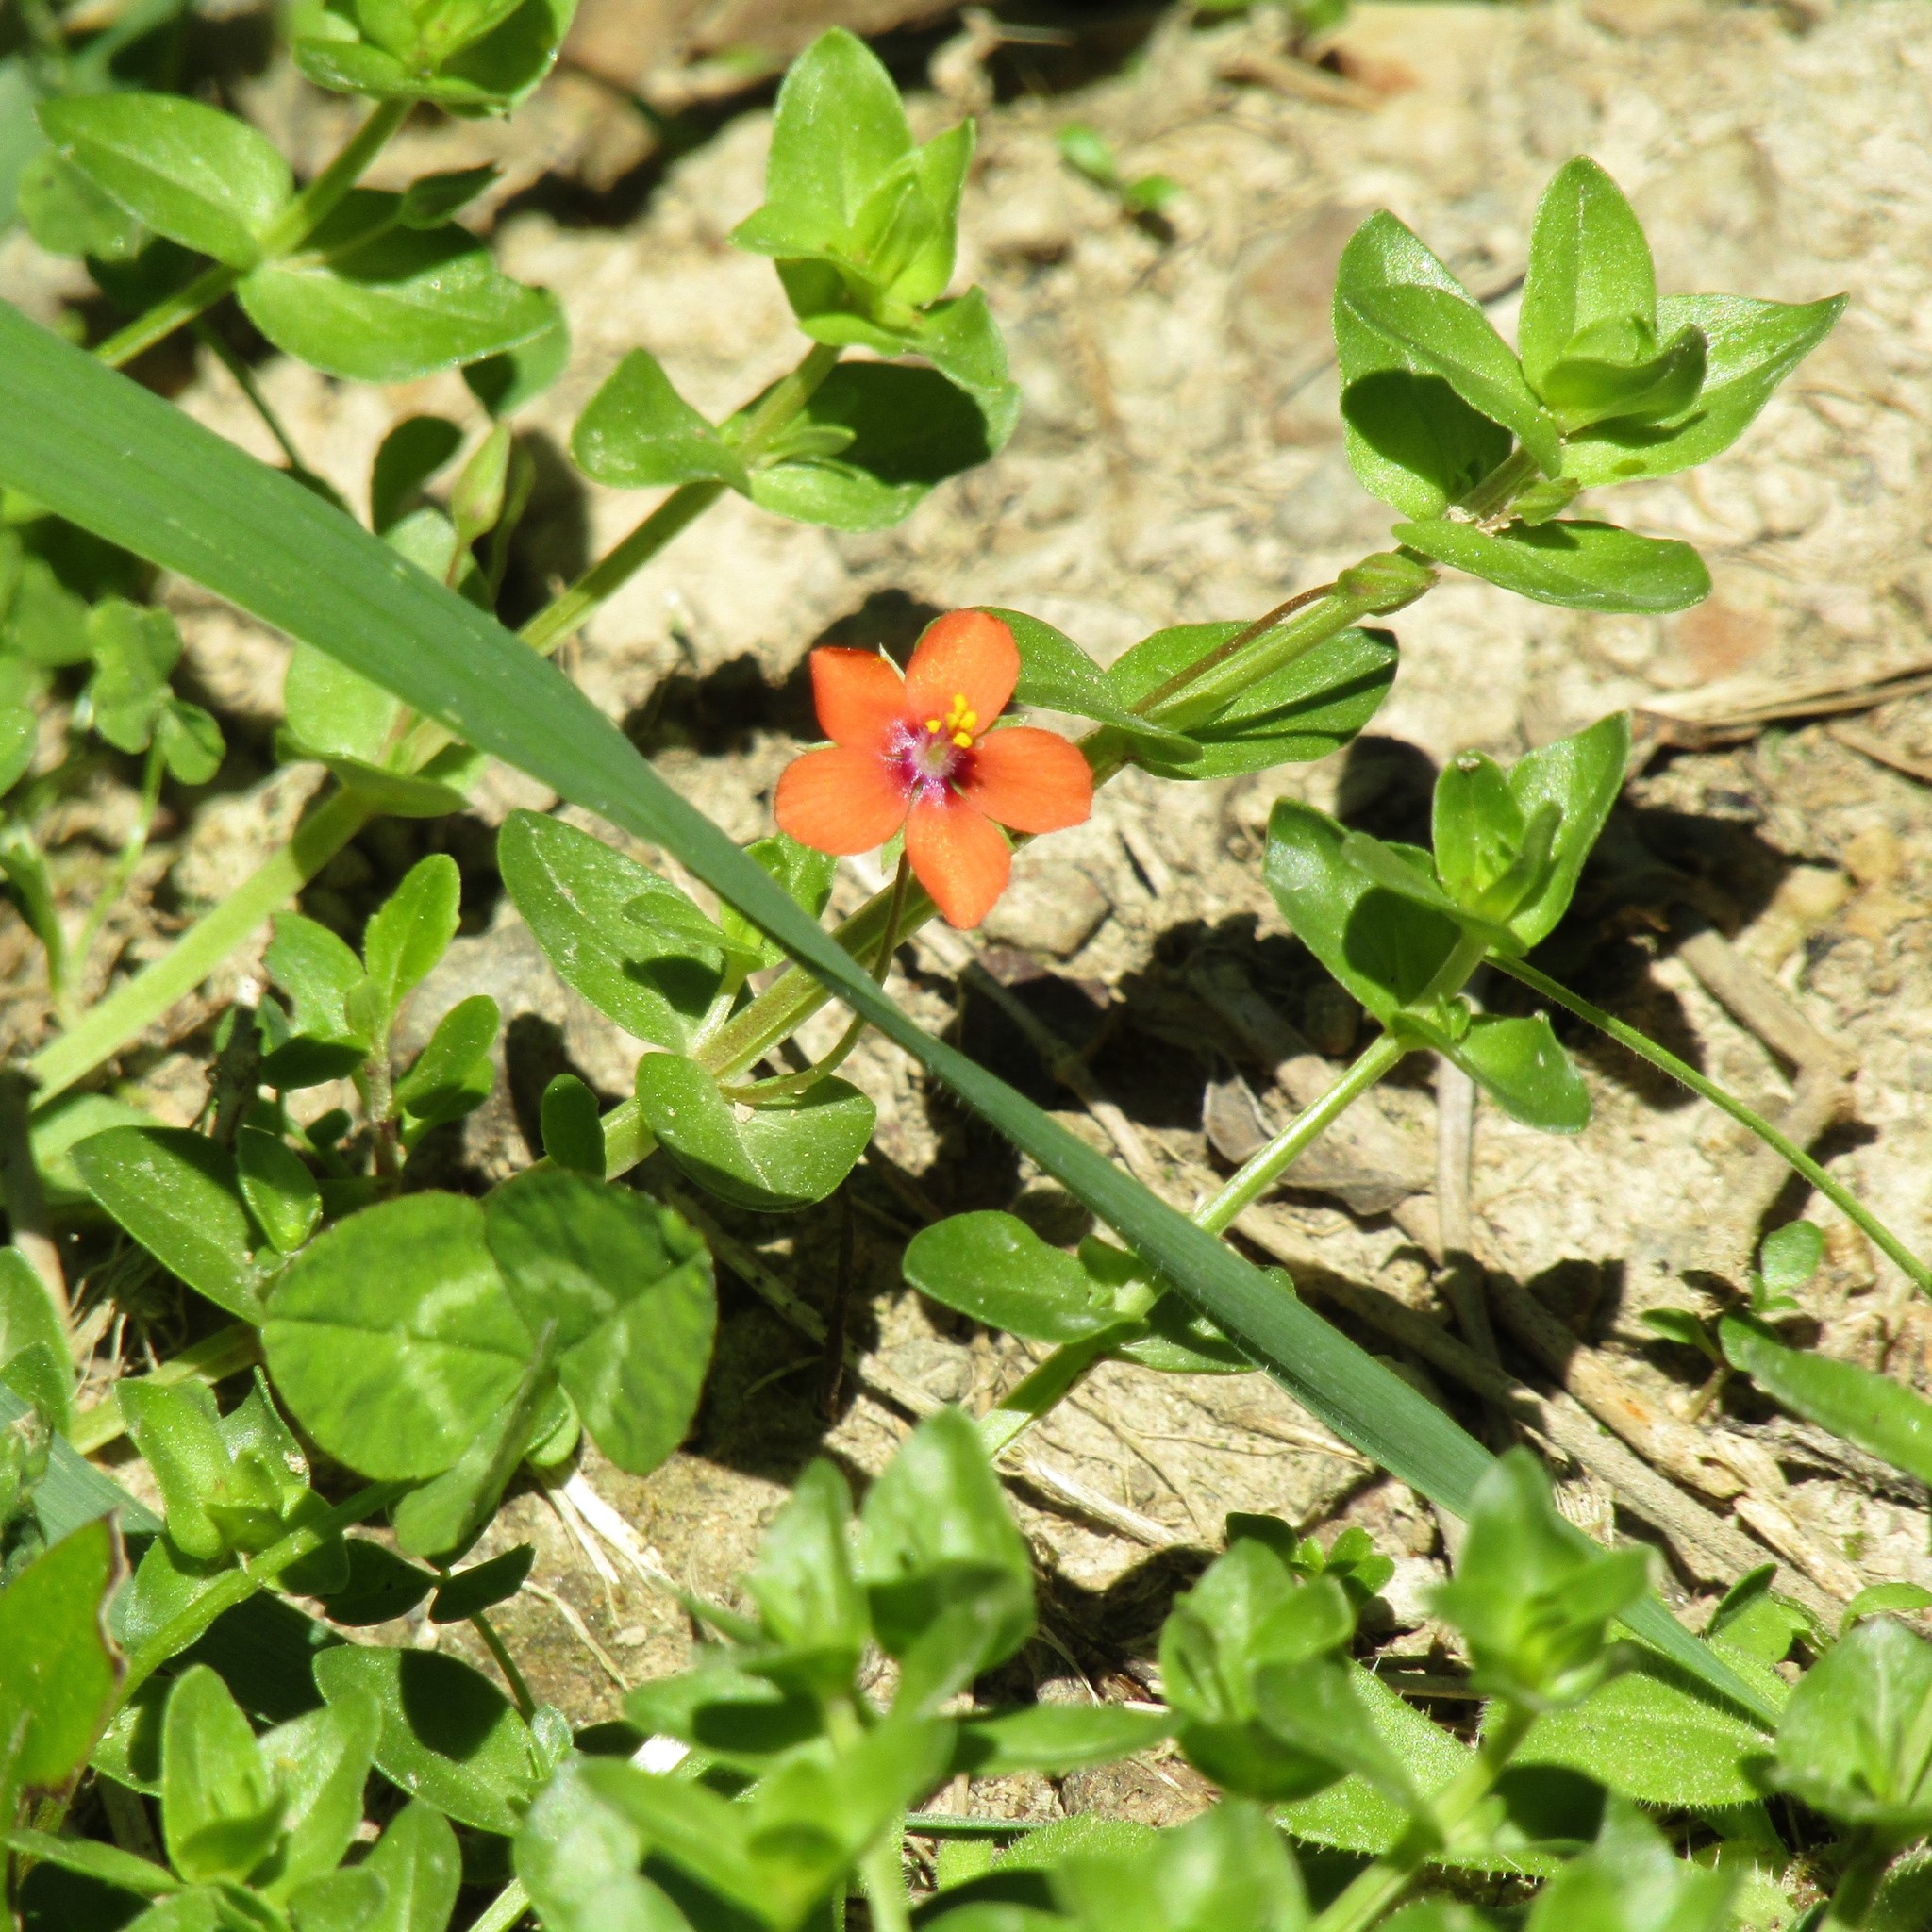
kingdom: Plantae
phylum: Tracheophyta
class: Magnoliopsida
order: Ericales
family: Primulaceae
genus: Lysimachia
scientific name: Lysimachia arvensis
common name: Scarlet pimpernel
